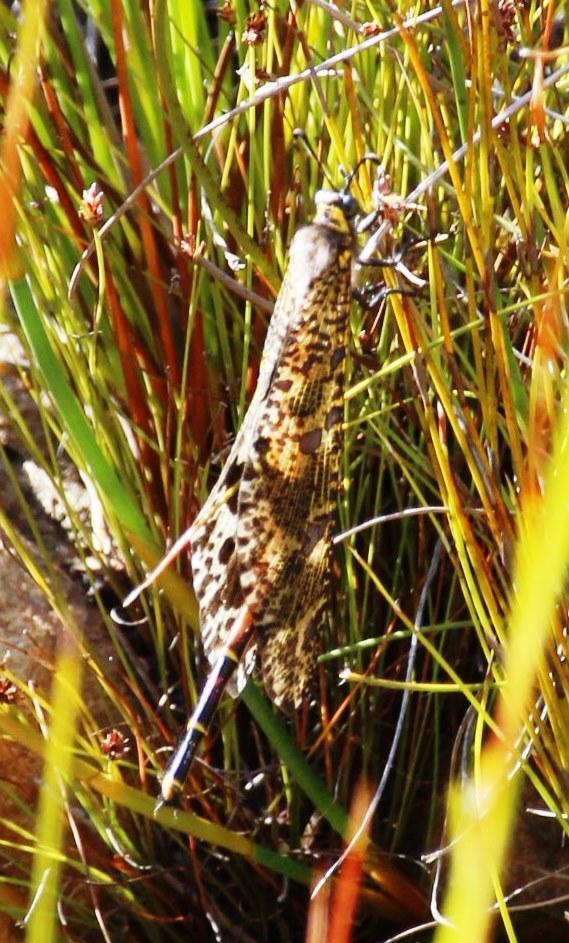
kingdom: Animalia
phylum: Arthropoda
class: Insecta
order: Neuroptera
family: Myrmeleontidae
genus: Palpares
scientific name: Palpares speciosus
